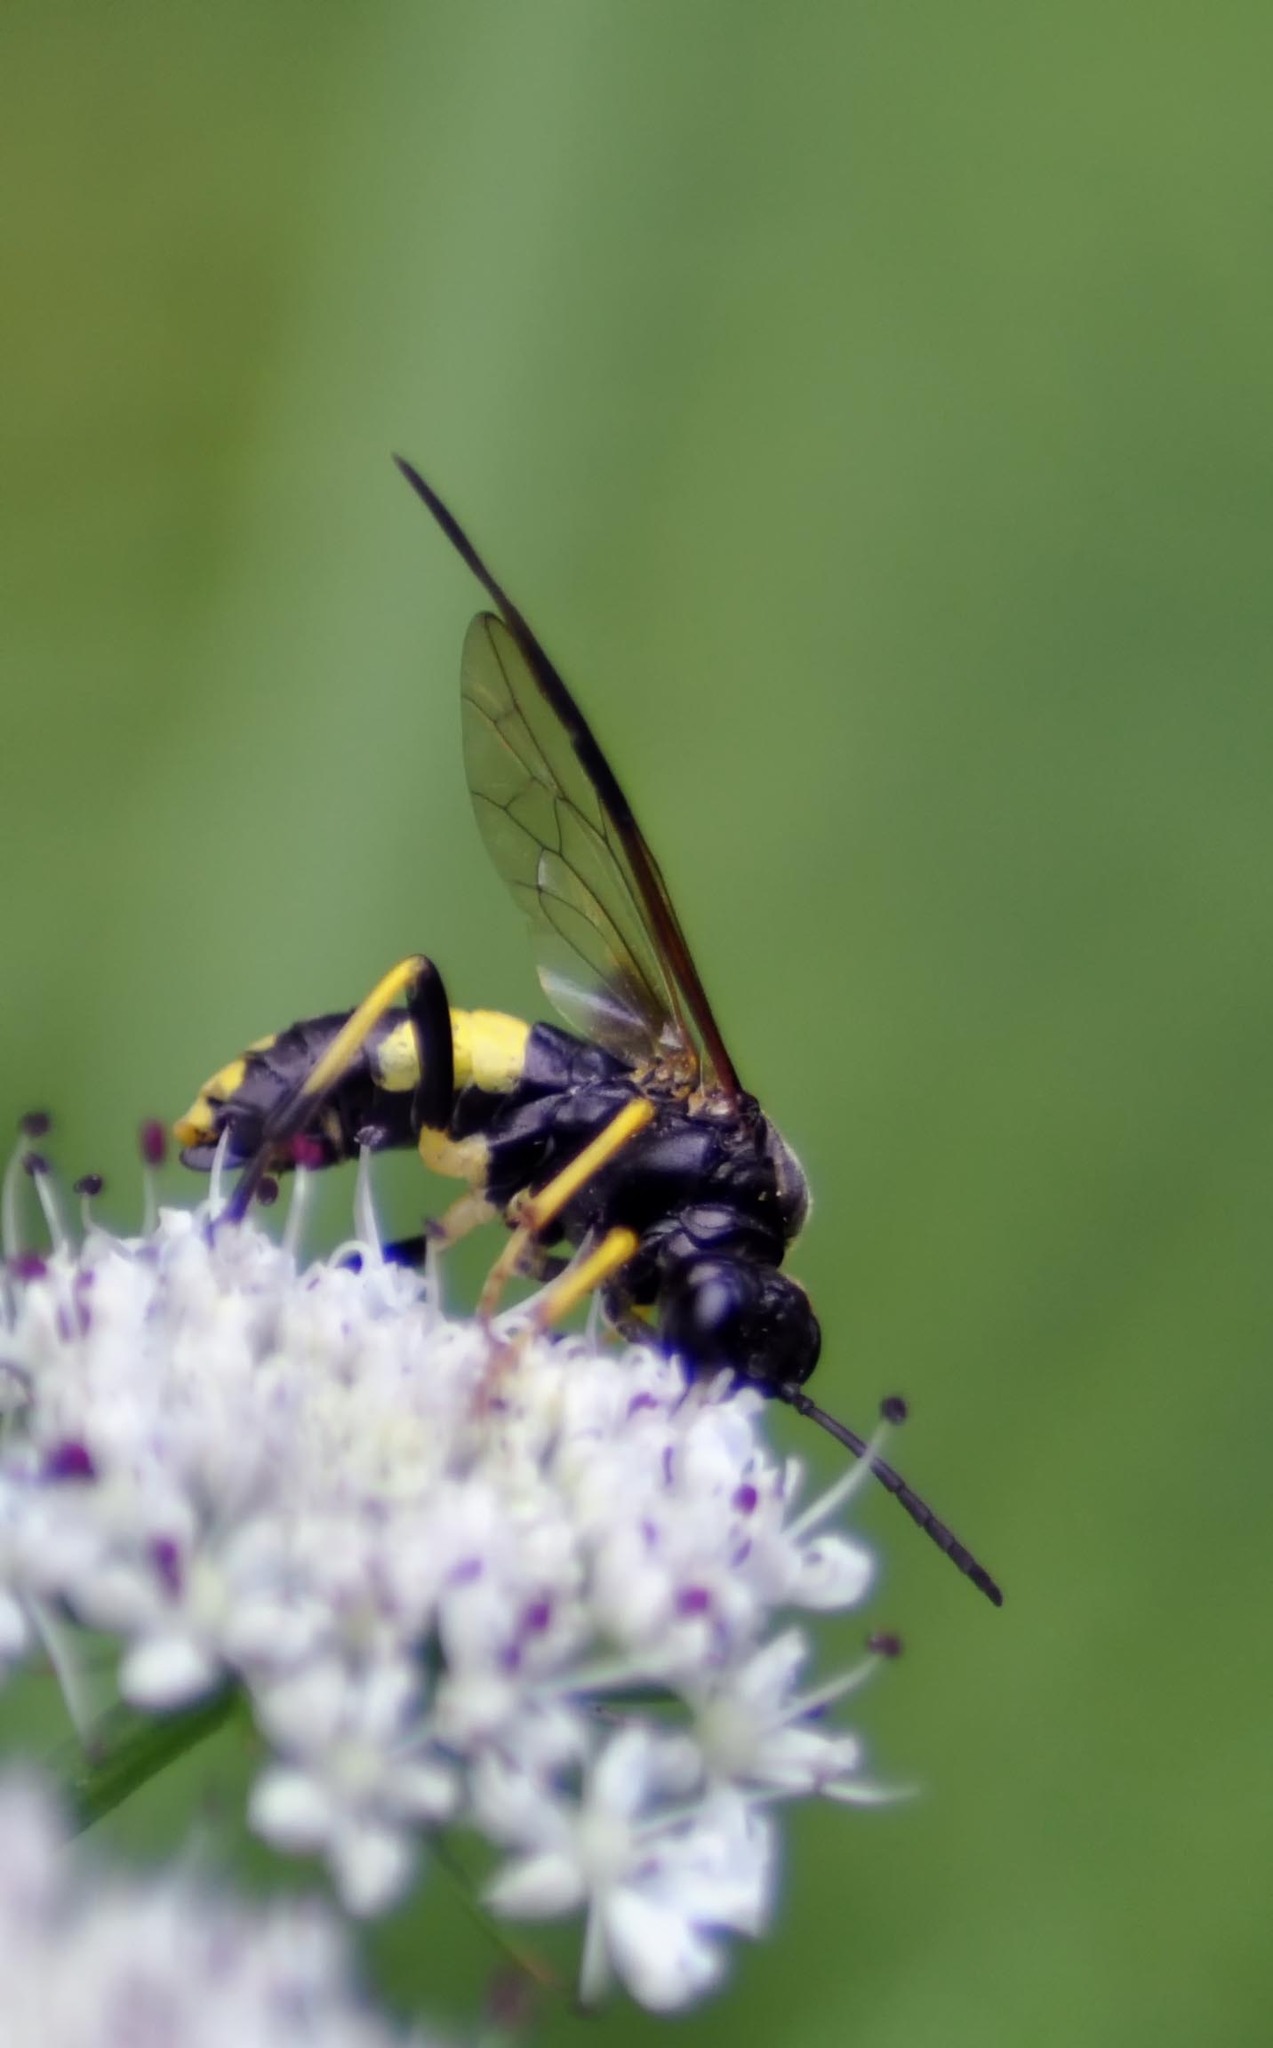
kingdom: Animalia
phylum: Arthropoda
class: Insecta
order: Hymenoptera
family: Tenthredinidae
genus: Tenthredo
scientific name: Tenthredo temula
